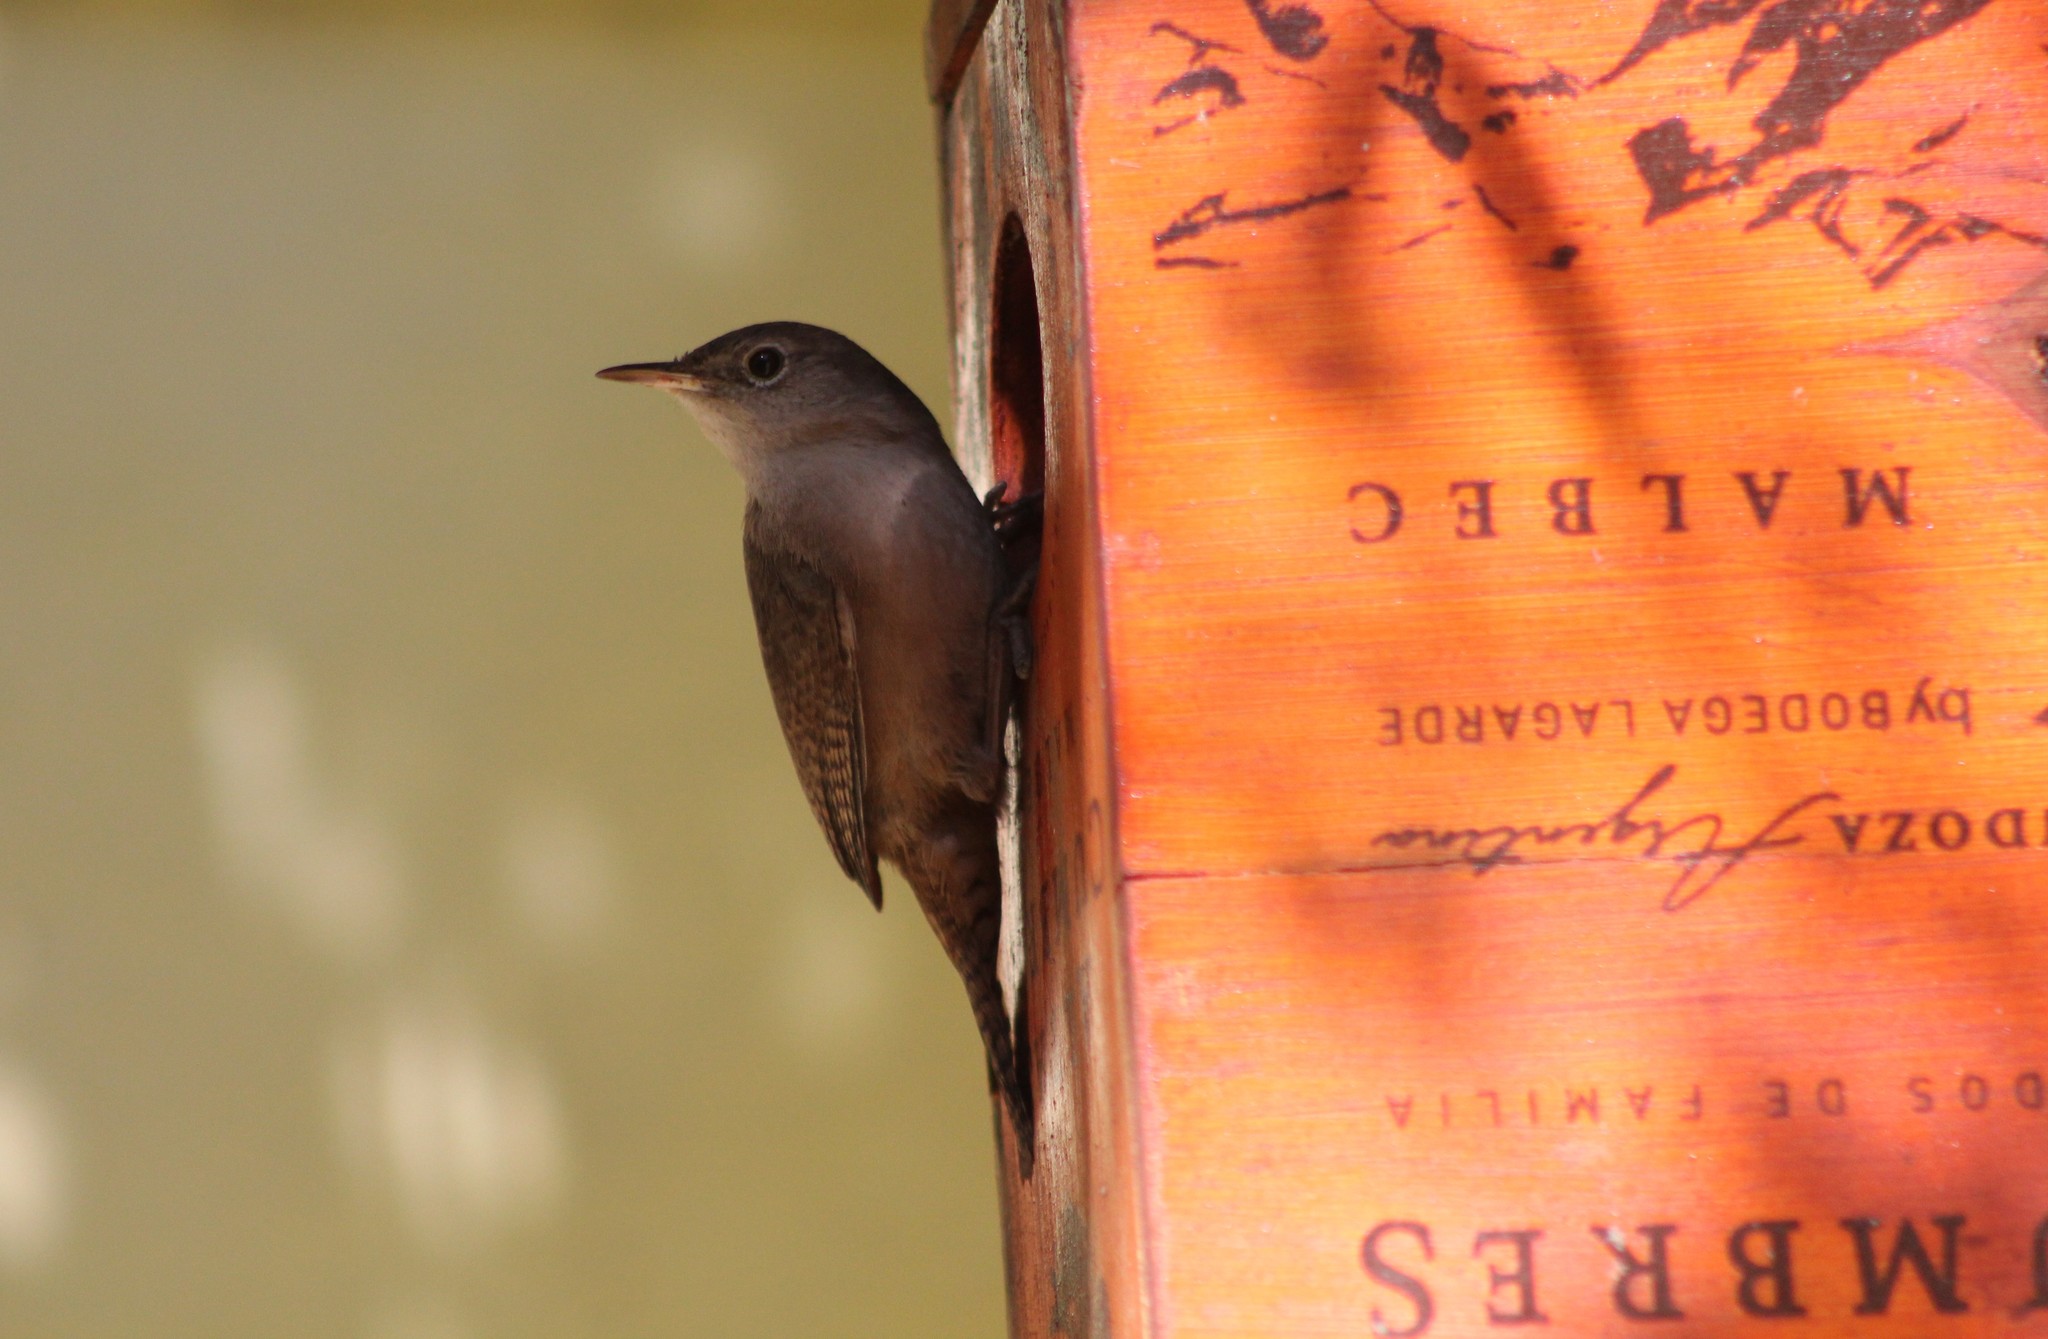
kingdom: Animalia
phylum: Chordata
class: Aves
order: Passeriformes
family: Troglodytidae
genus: Troglodytes
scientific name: Troglodytes aedon
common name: House wren
